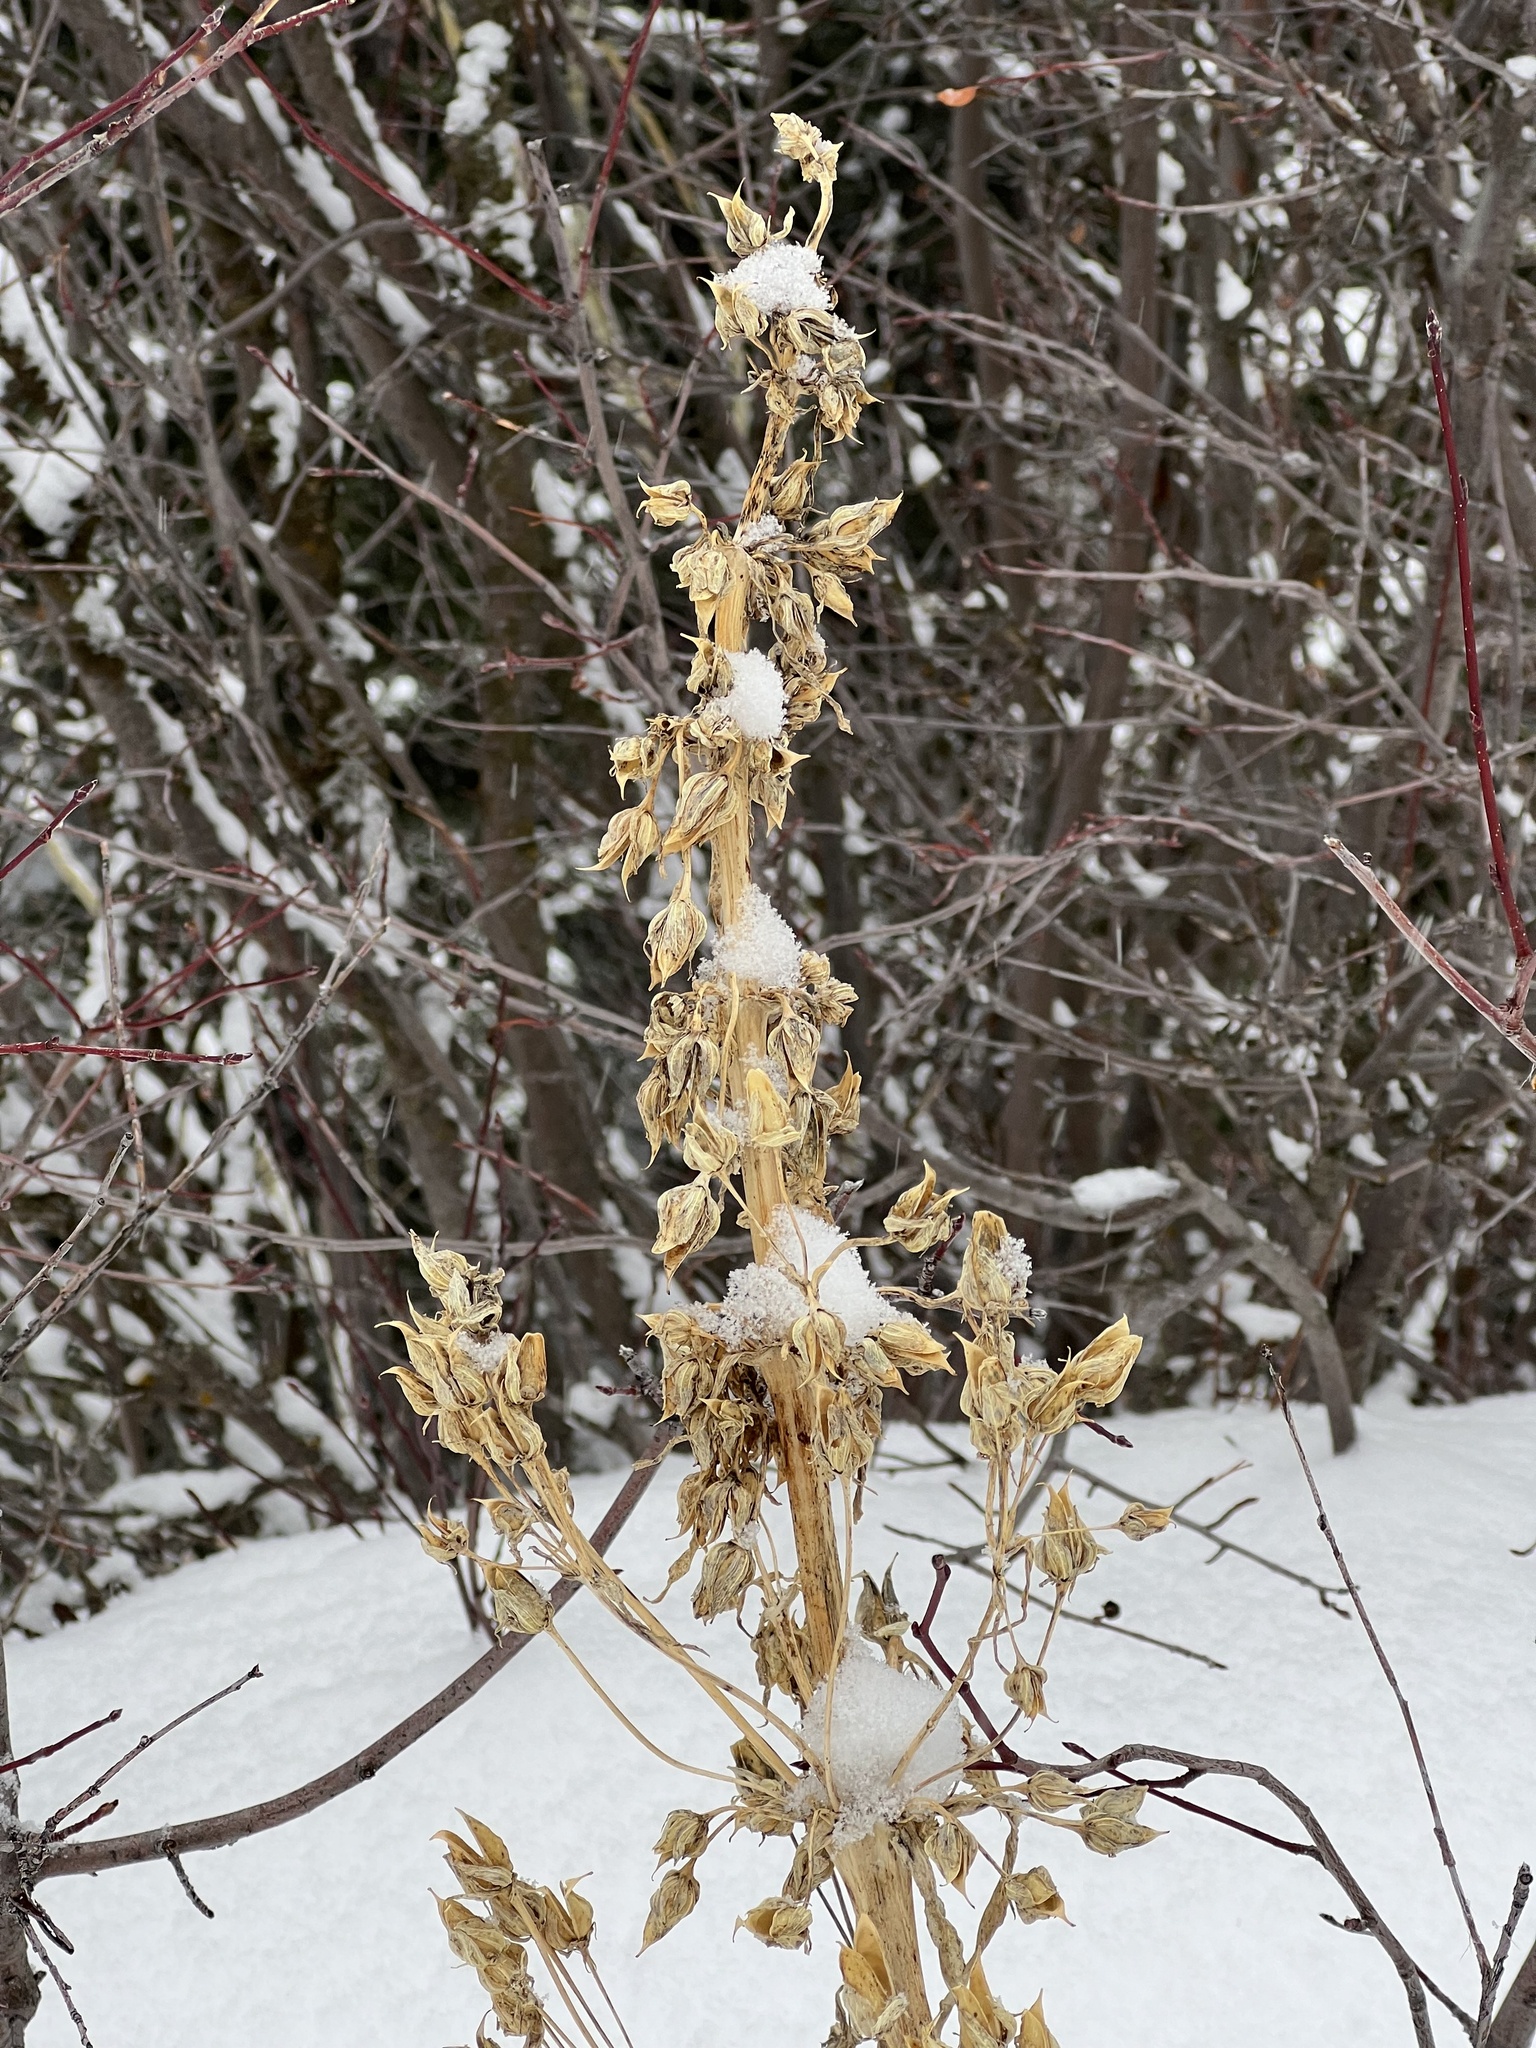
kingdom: Plantae
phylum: Tracheophyta
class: Magnoliopsida
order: Gentianales
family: Gentianaceae
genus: Frasera
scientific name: Frasera speciosa
